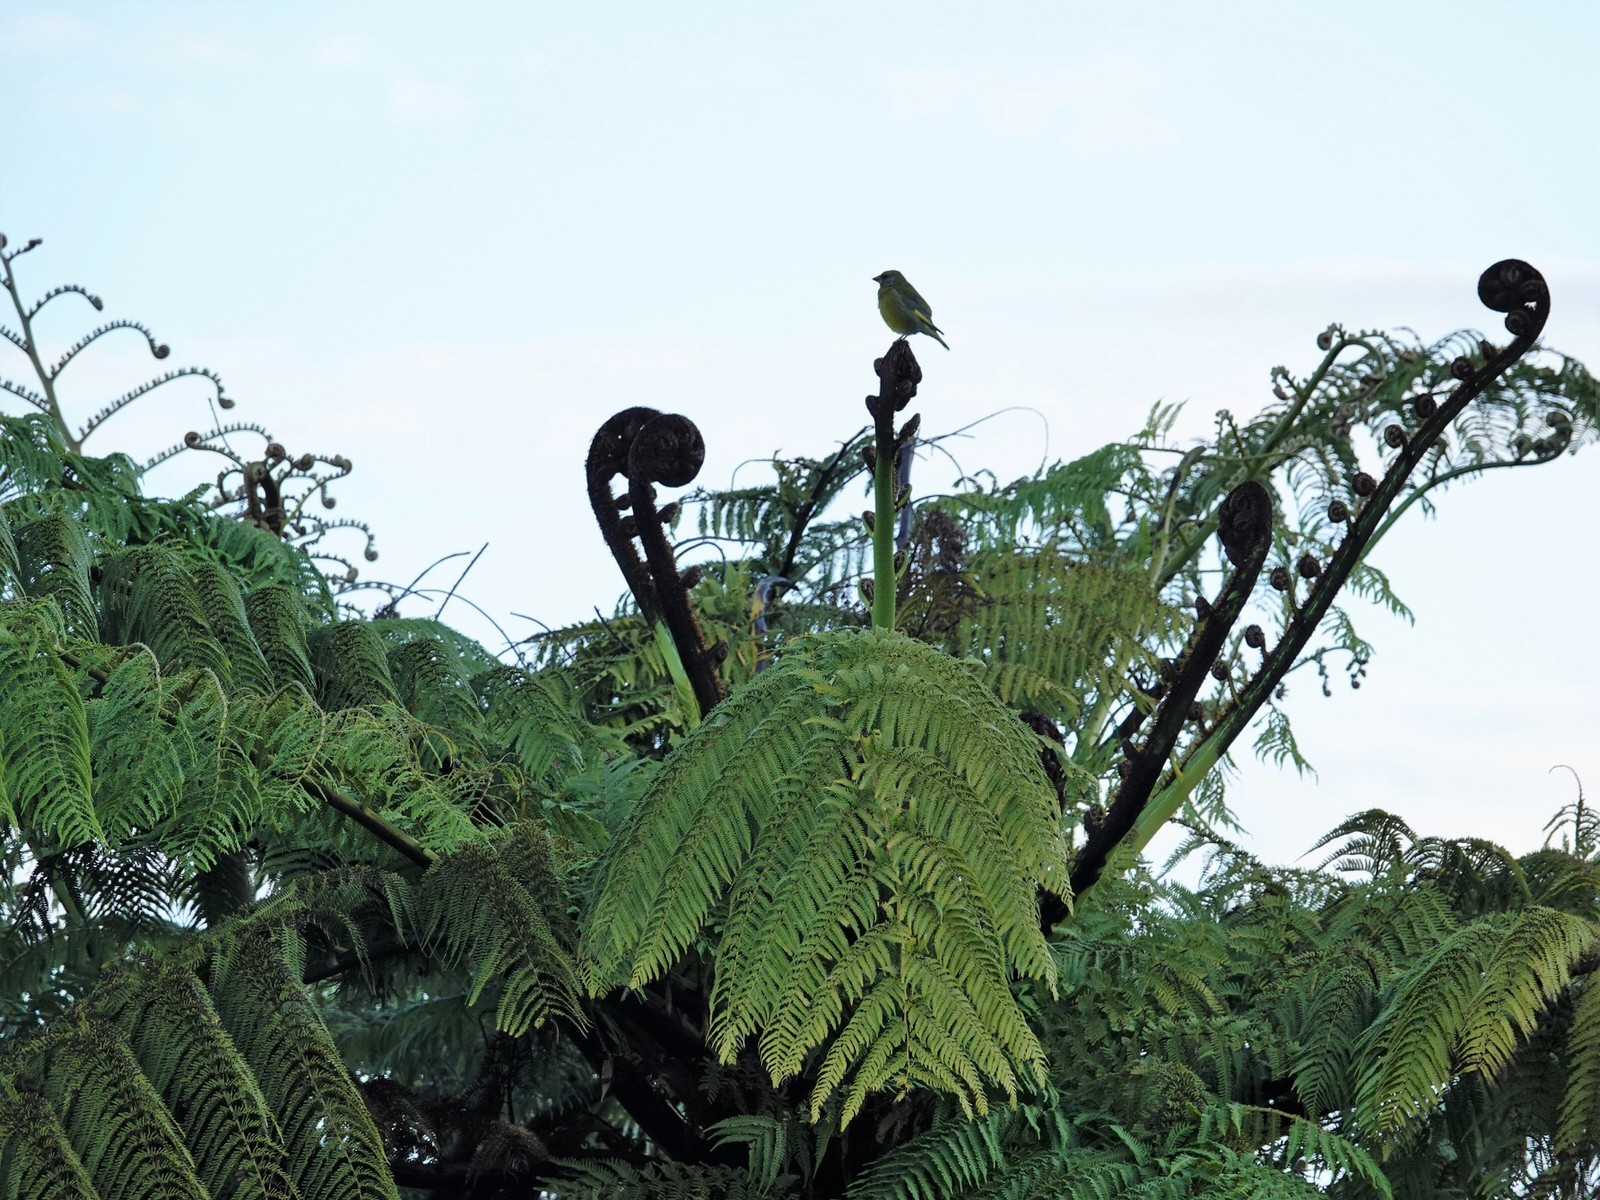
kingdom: Plantae
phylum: Tracheophyta
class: Liliopsida
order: Poales
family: Poaceae
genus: Chloris
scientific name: Chloris chloris
